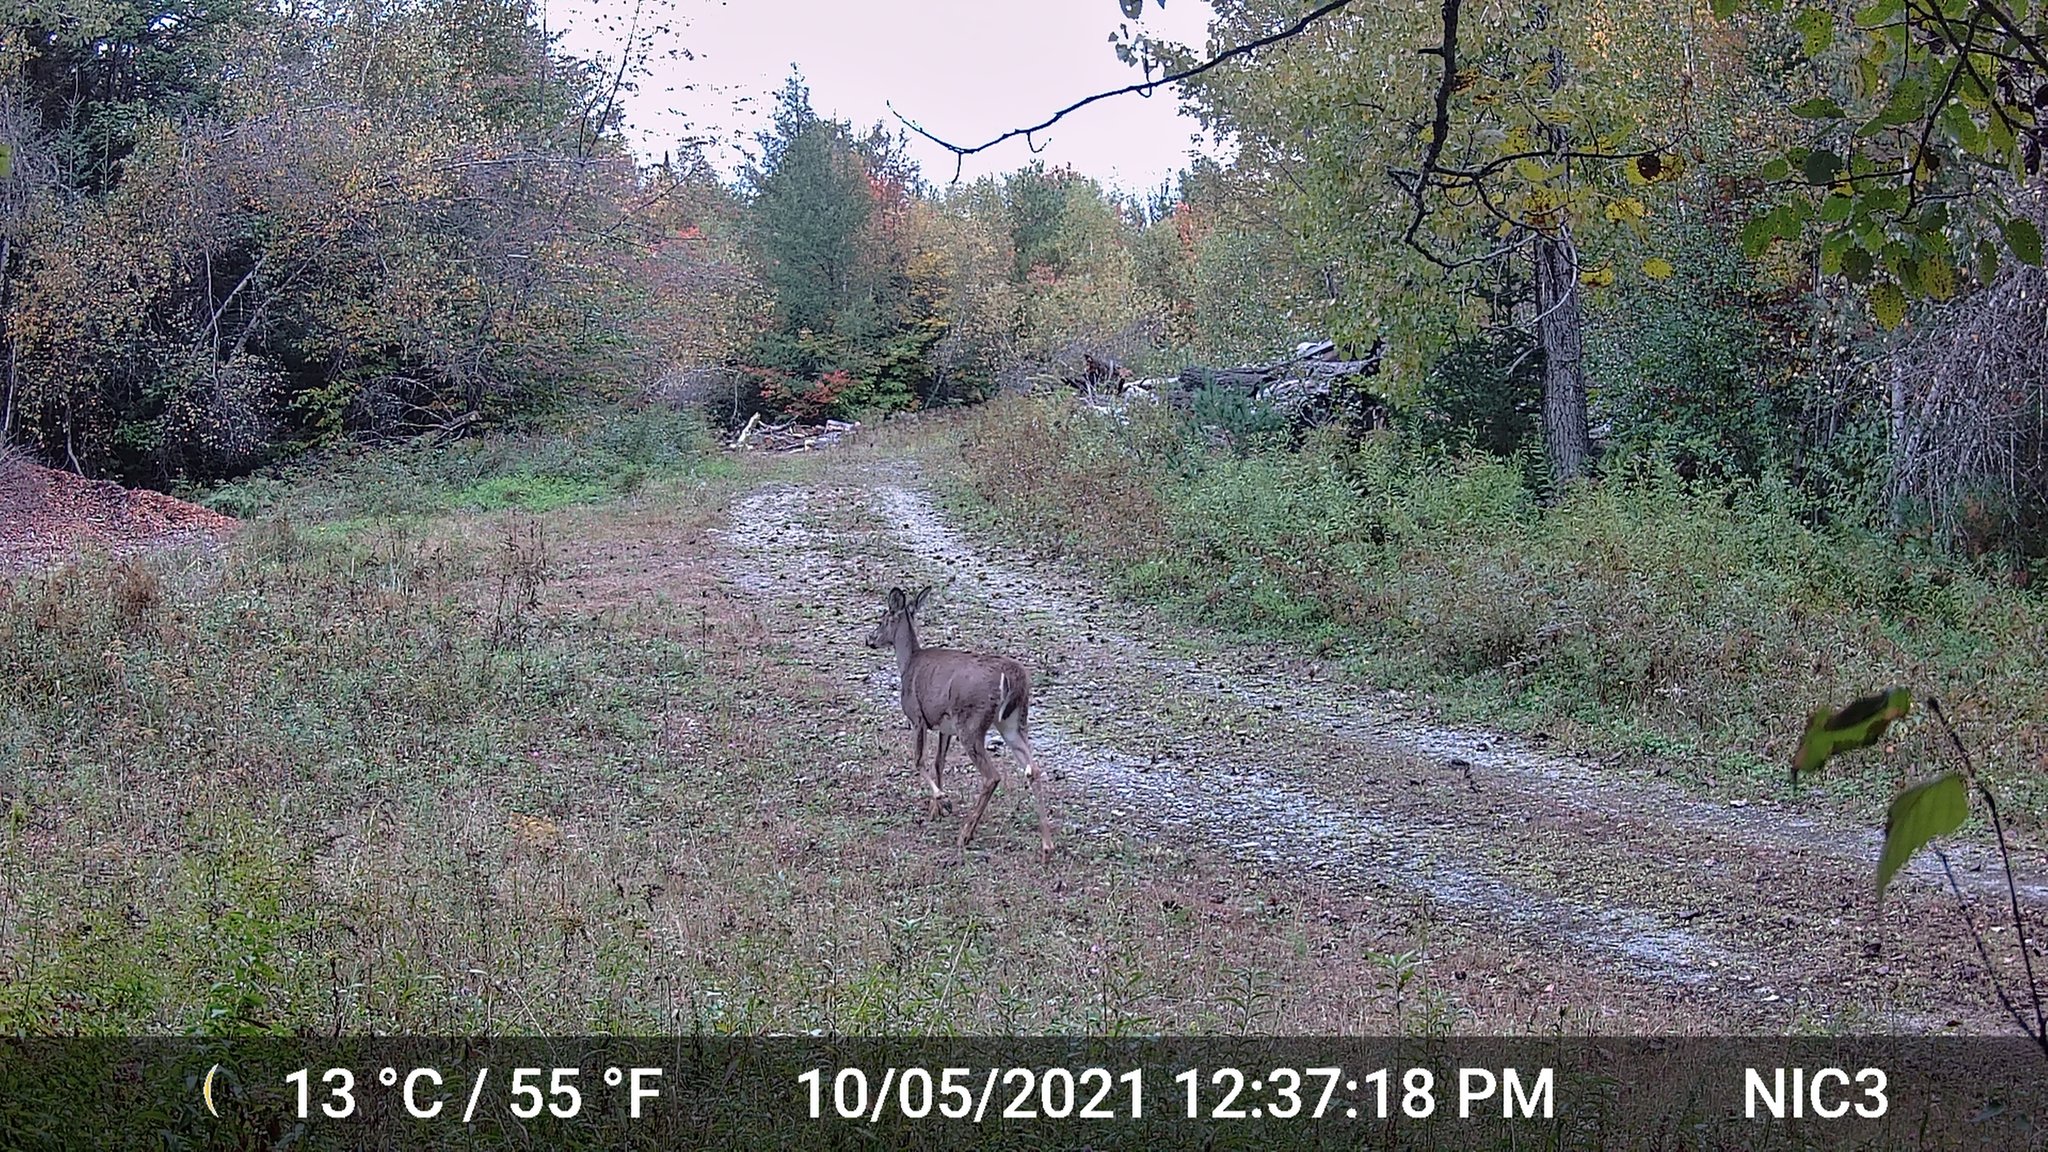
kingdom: Animalia
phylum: Chordata
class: Mammalia
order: Artiodactyla
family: Cervidae
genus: Odocoileus
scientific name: Odocoileus virginianus
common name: White-tailed deer
